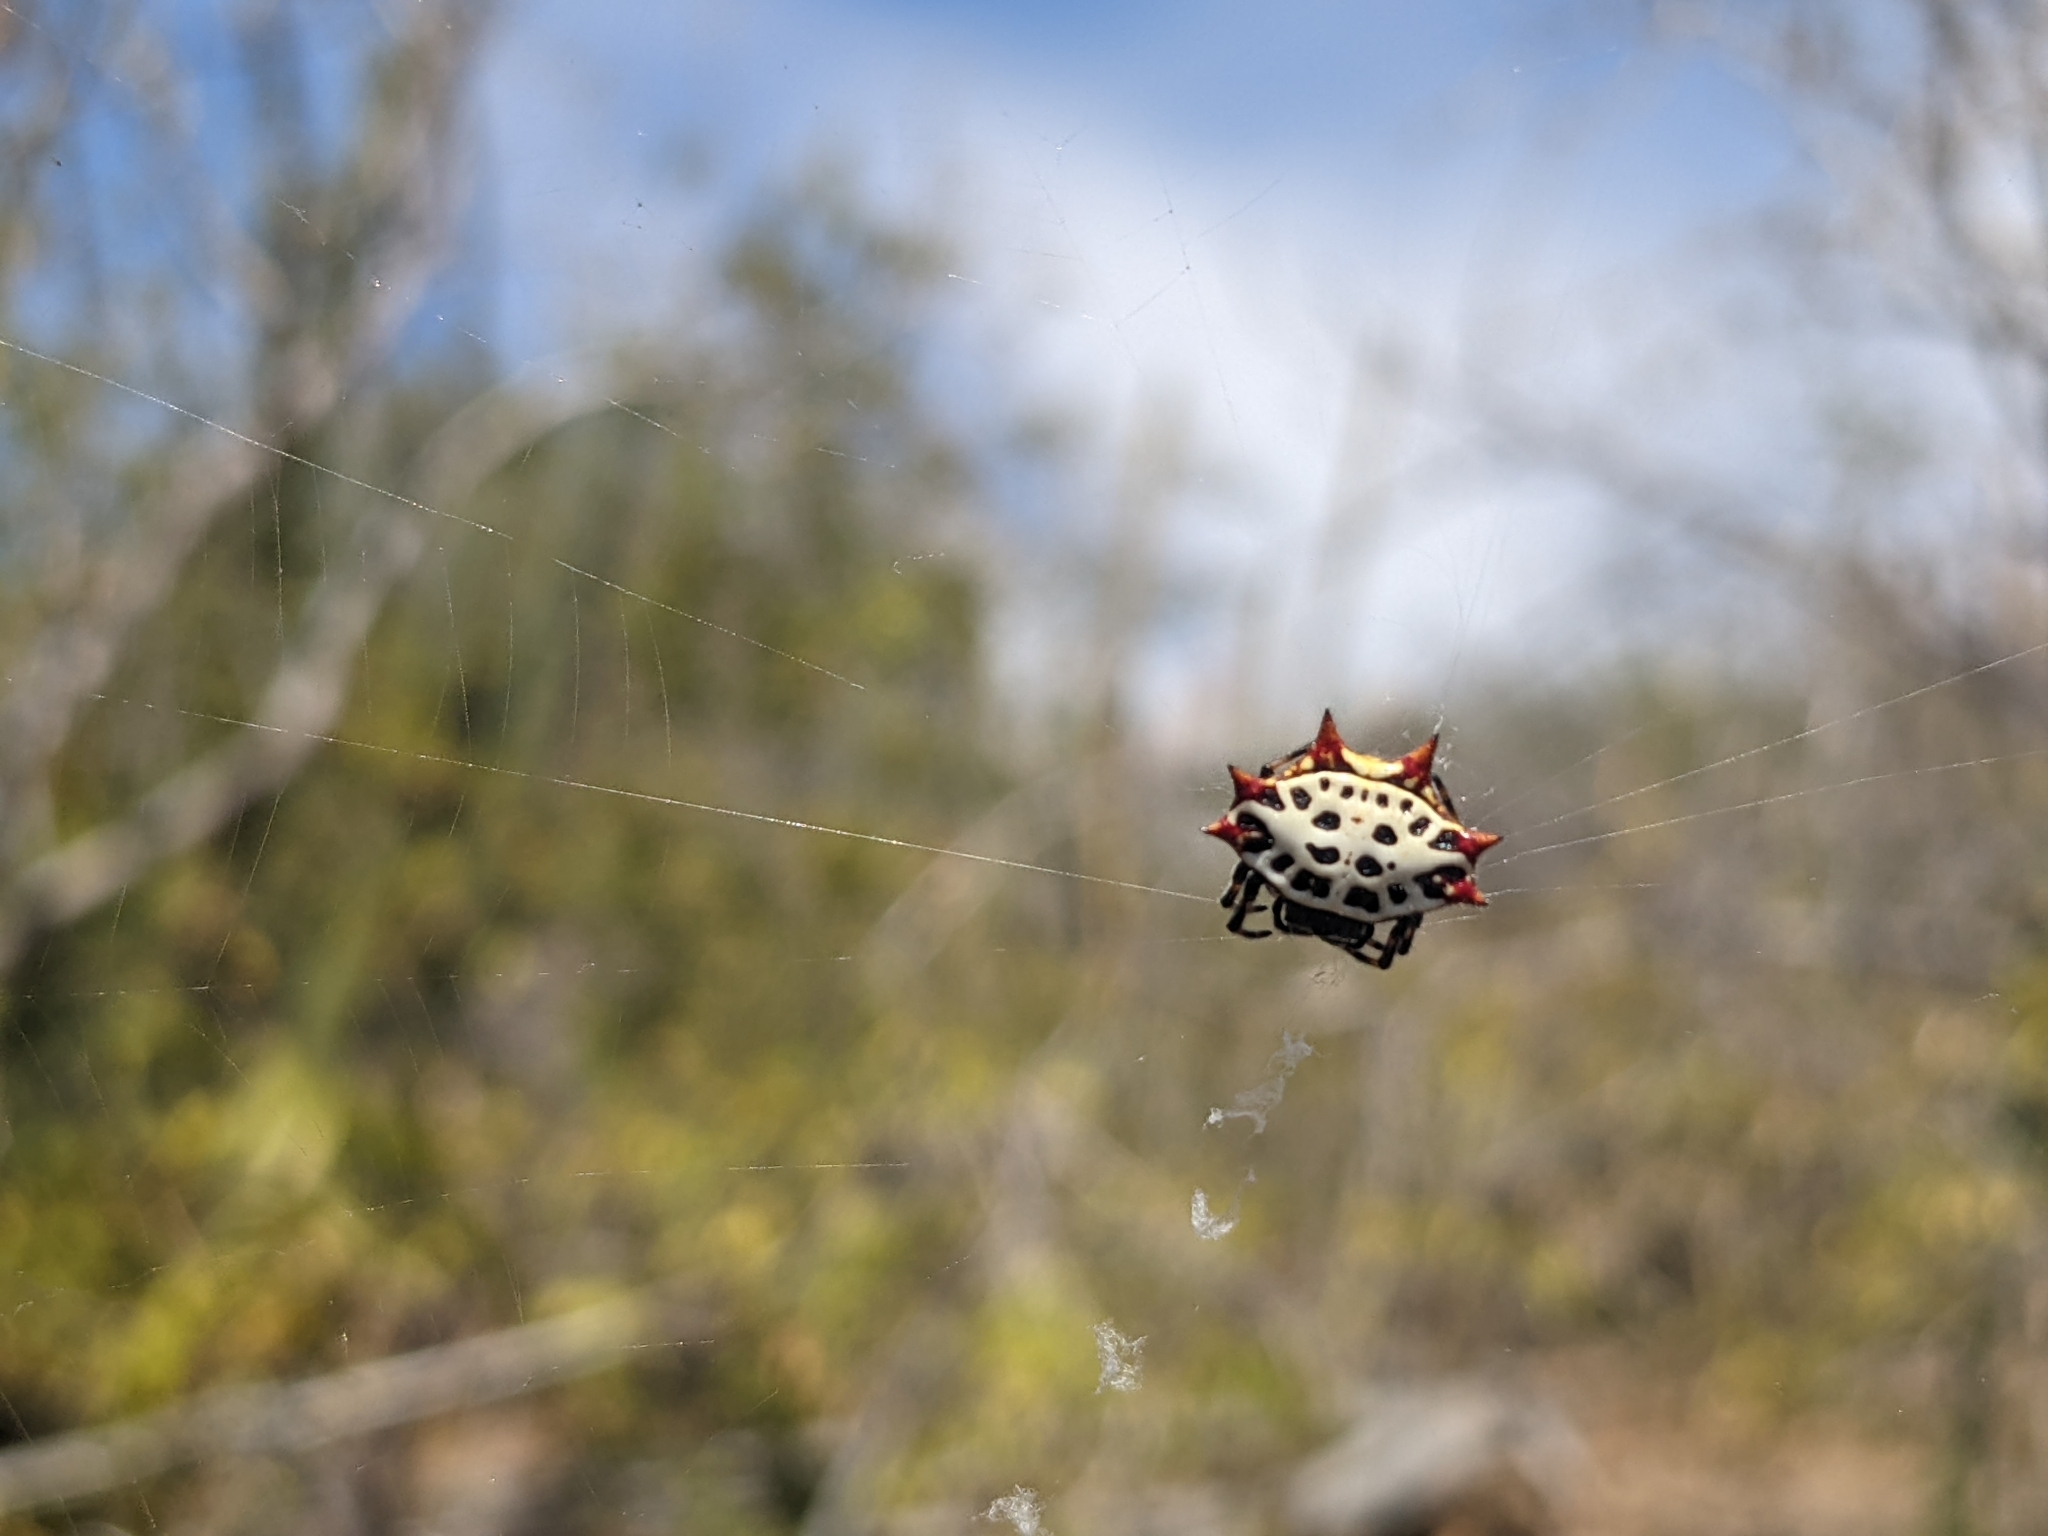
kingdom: Animalia
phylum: Arthropoda
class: Arachnida
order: Araneae
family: Araneidae
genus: Gasteracantha
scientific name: Gasteracantha cancriformis
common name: Orb weavers
